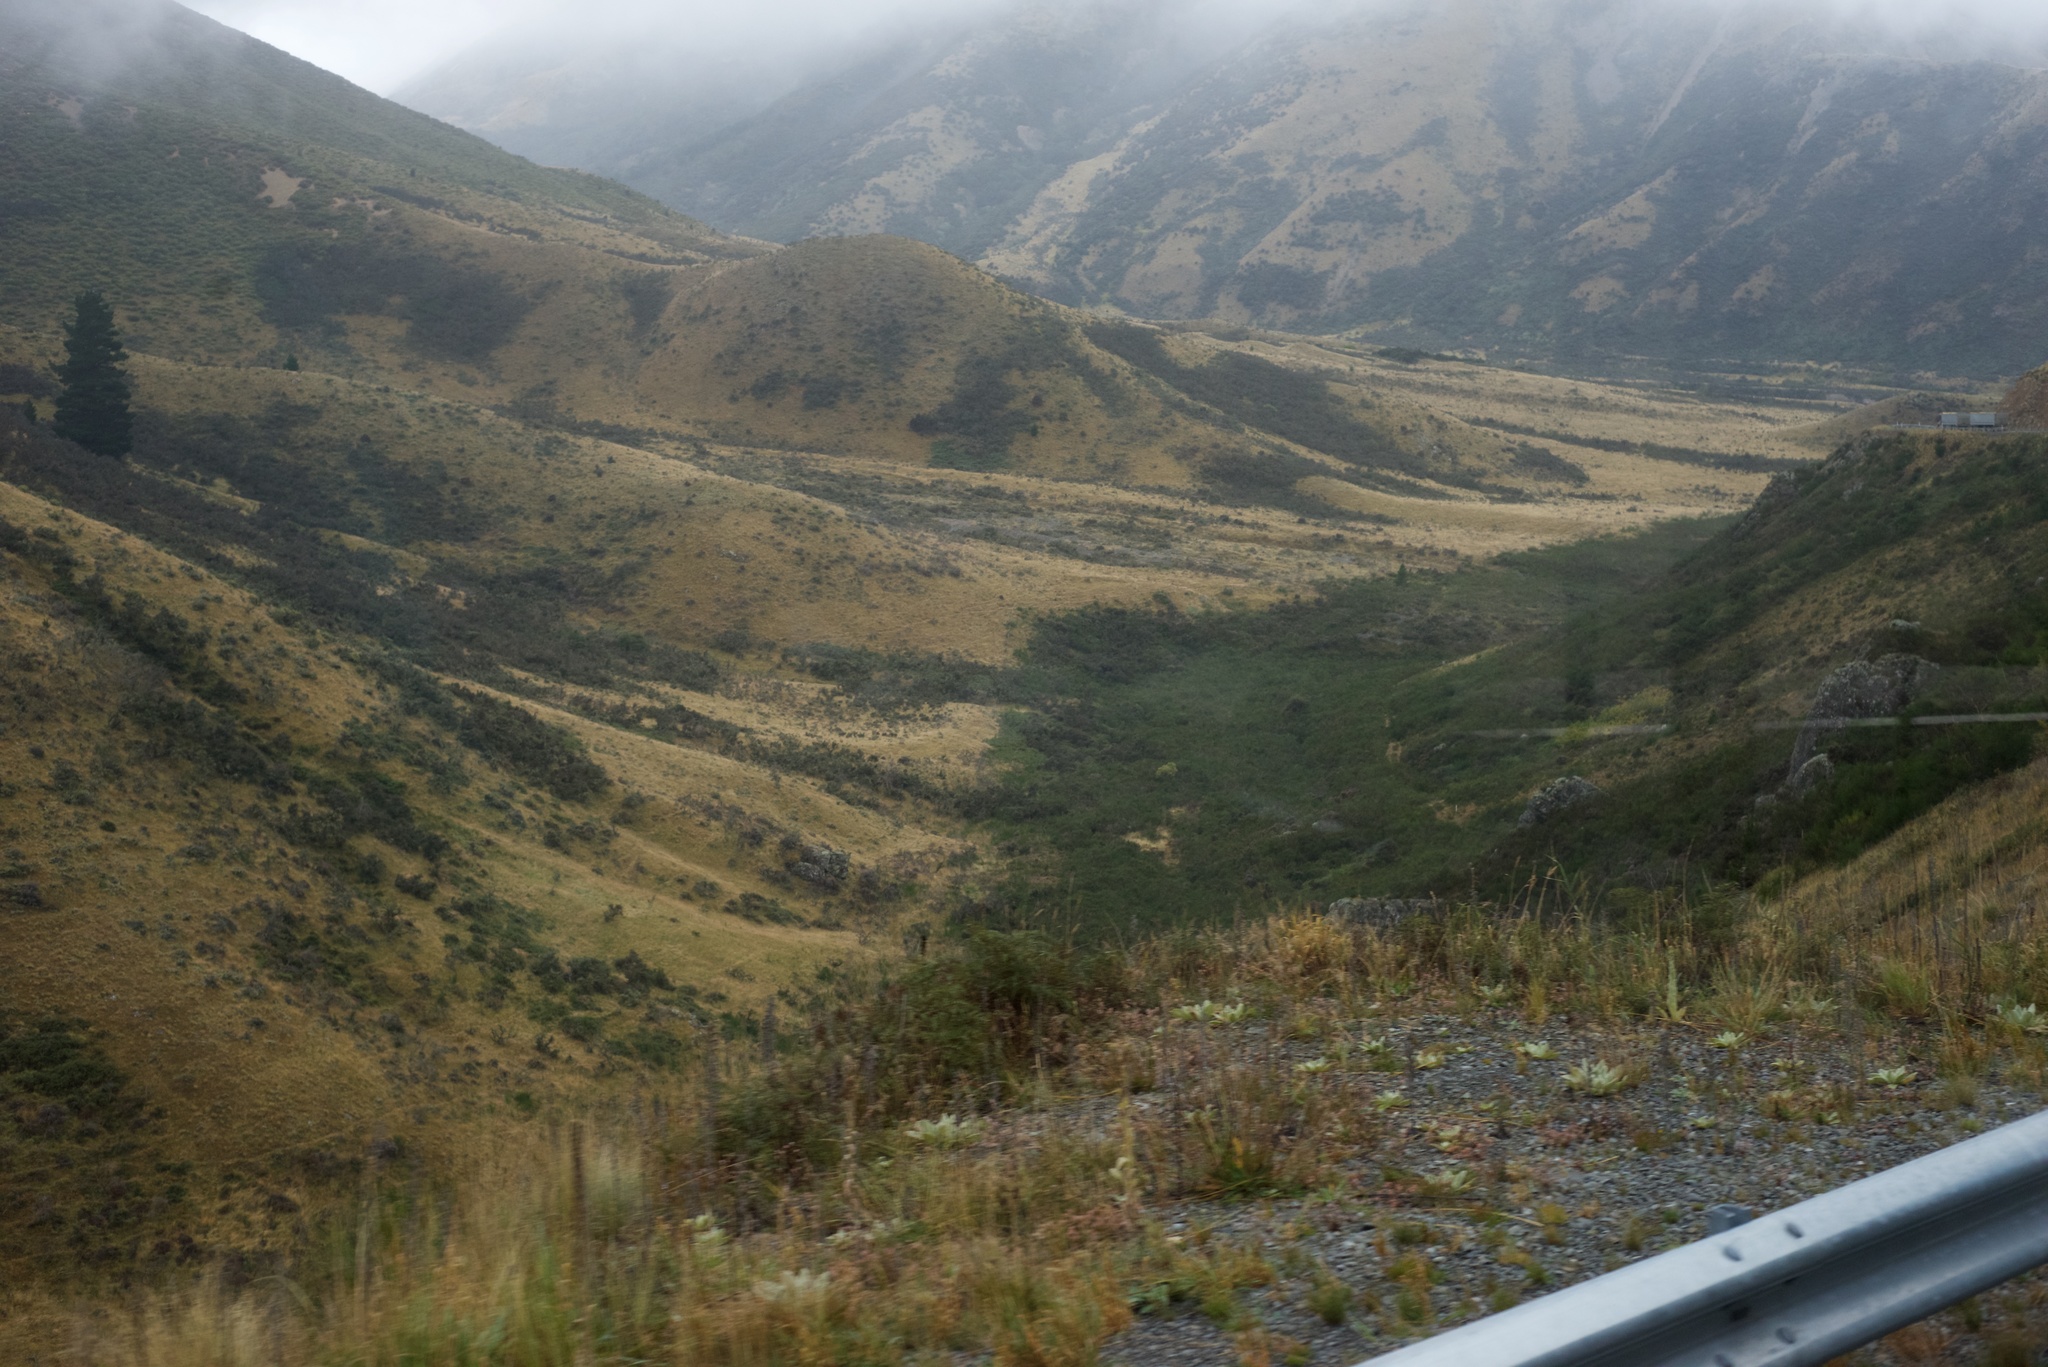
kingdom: Plantae
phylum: Tracheophyta
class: Magnoliopsida
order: Fabales
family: Fabaceae
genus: Cytisus
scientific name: Cytisus scoparius
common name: Scotch broom
